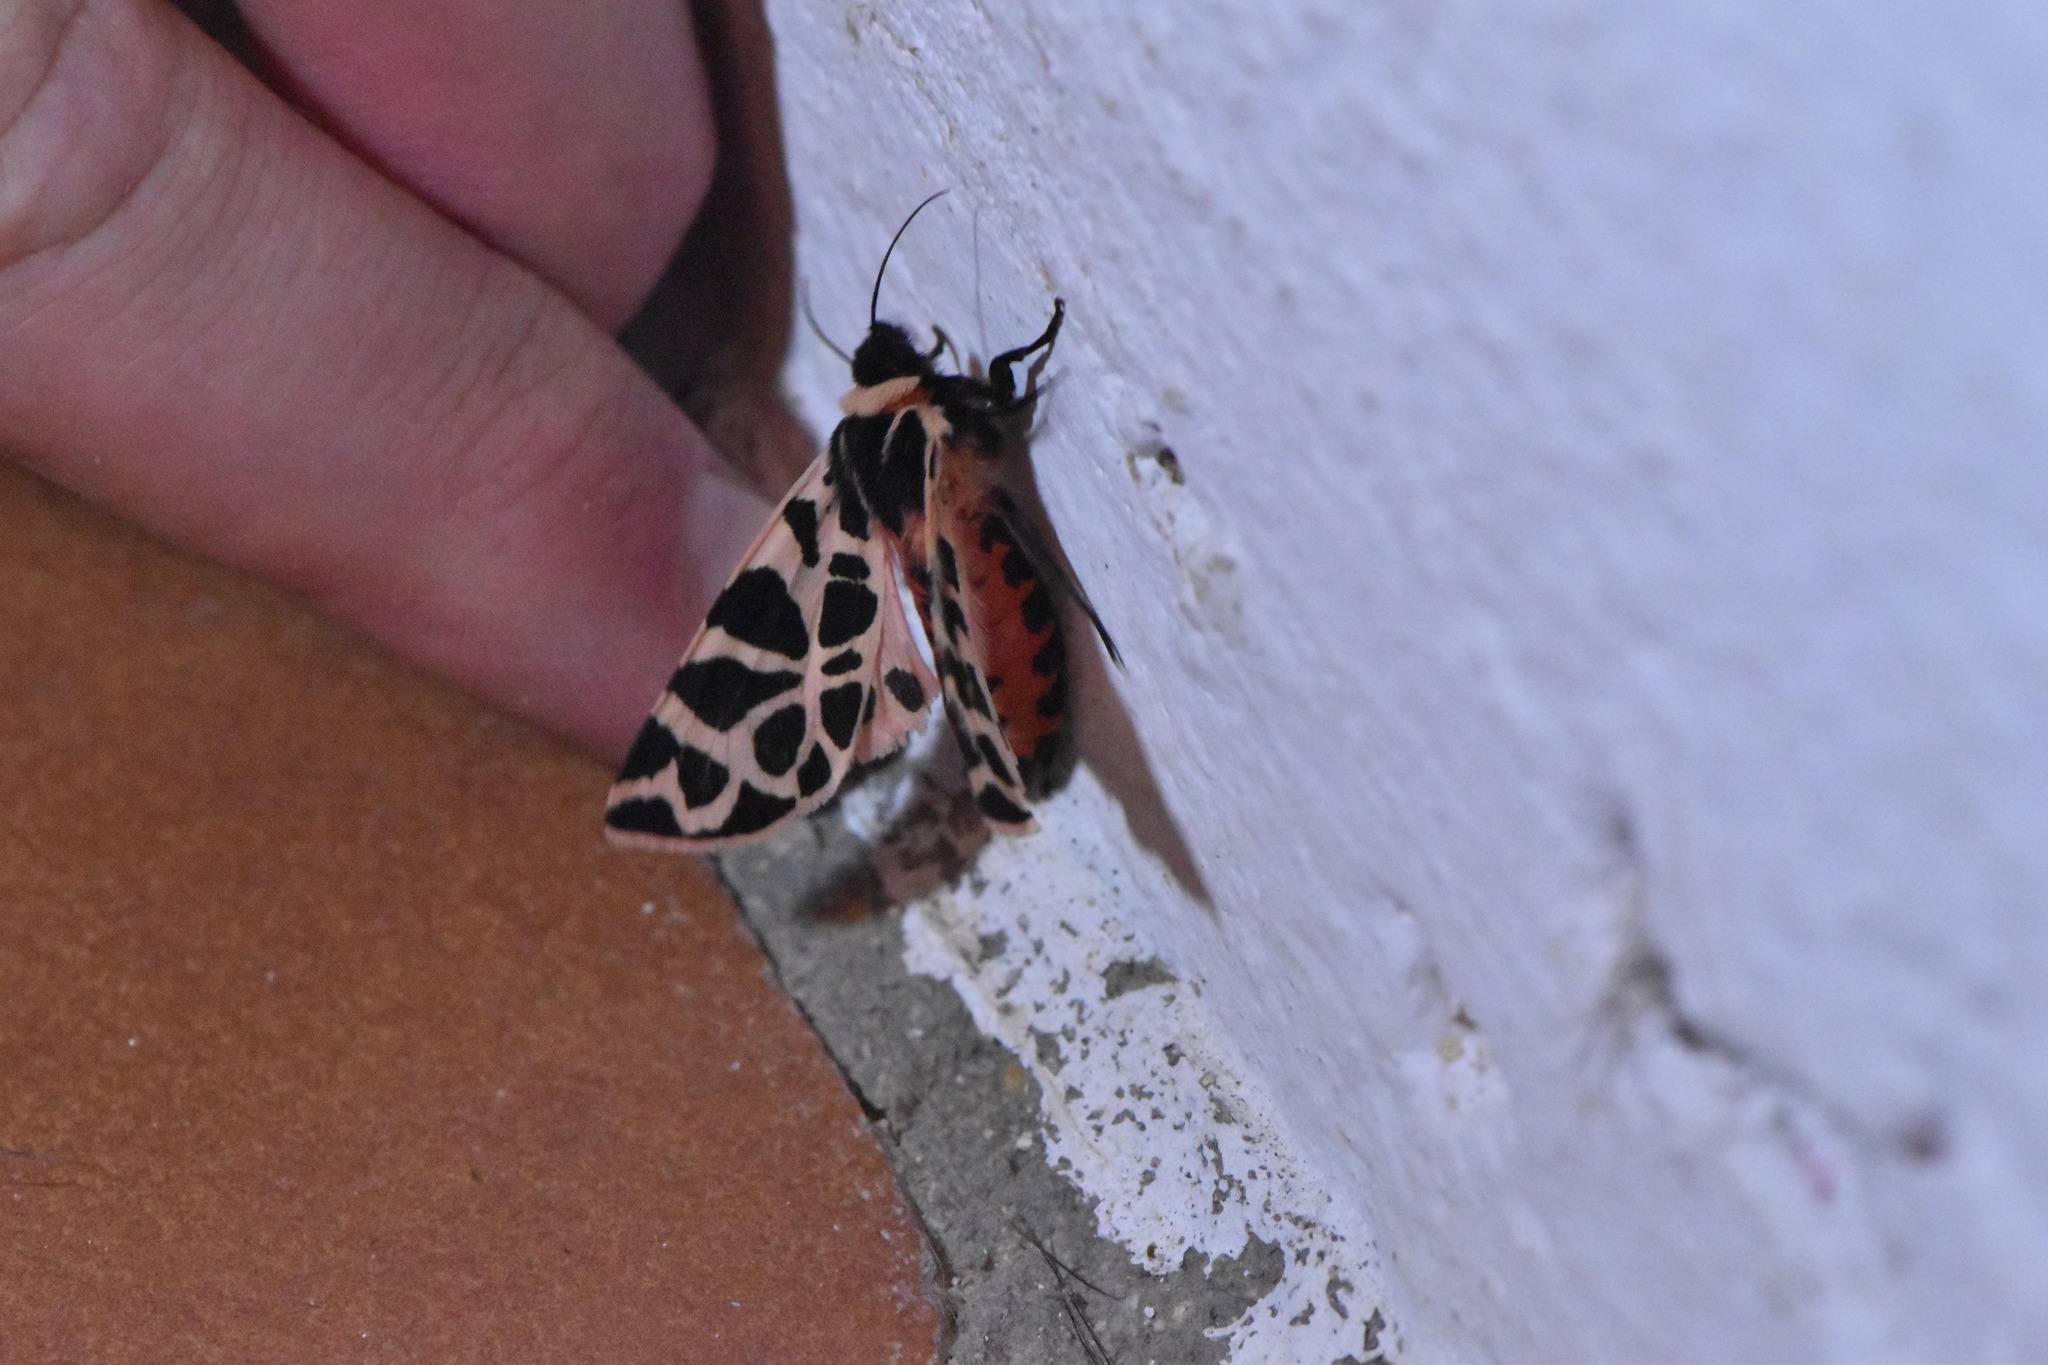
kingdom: Animalia
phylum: Arthropoda
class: Insecta
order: Lepidoptera
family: Erebidae
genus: Cymbalophora
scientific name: Cymbalophora pudica
